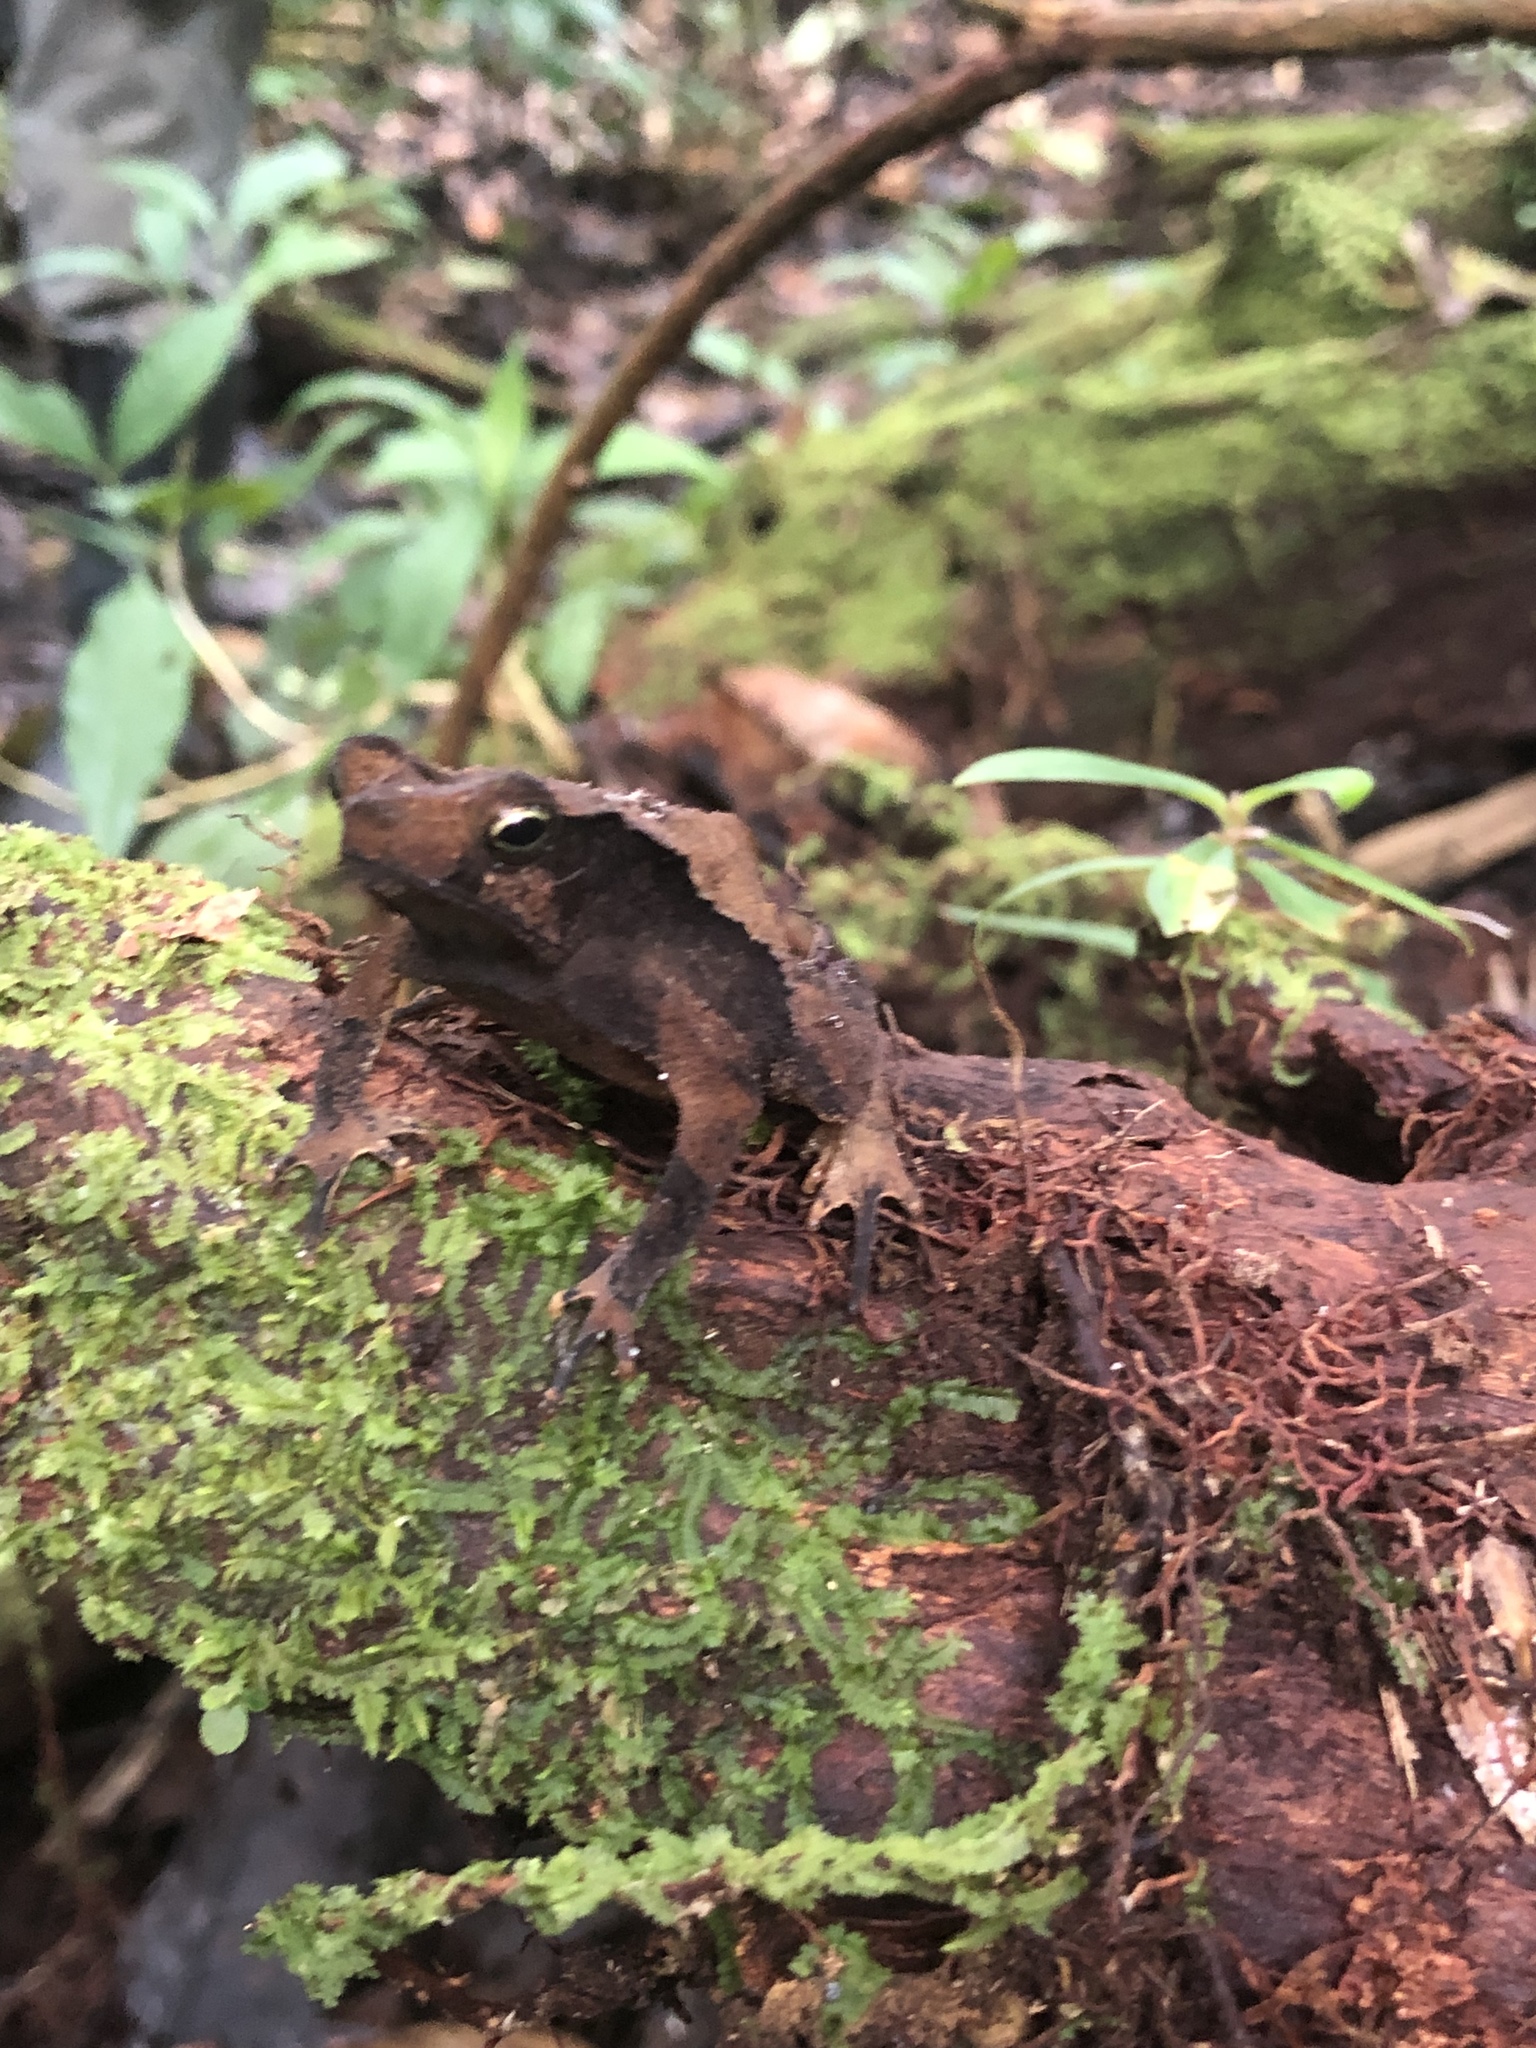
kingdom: Animalia
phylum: Chordata
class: Amphibia
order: Anura
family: Bufonidae
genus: Rhinella
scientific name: Rhinella margaritifera
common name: Mitred toad
